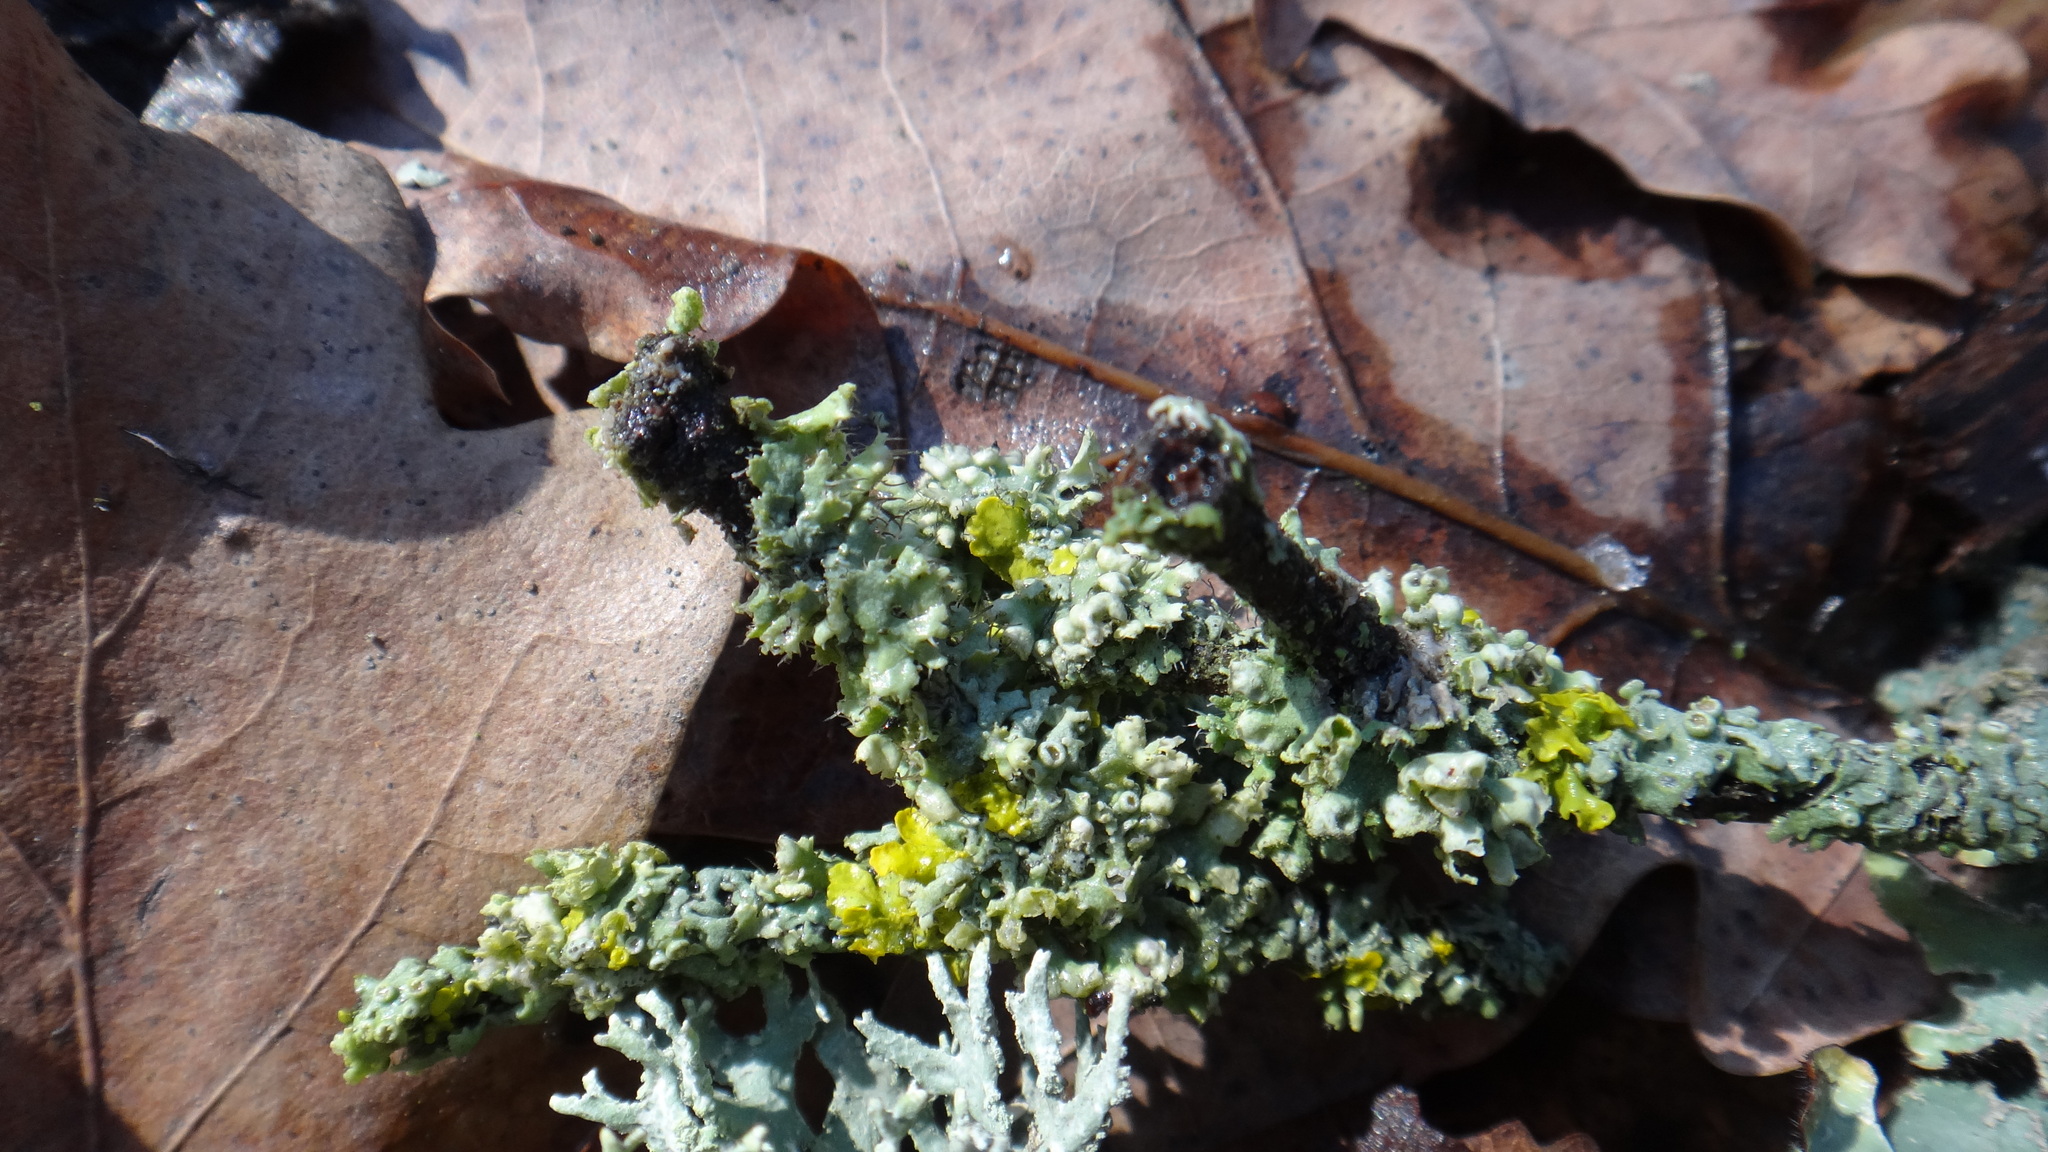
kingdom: Fungi
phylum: Ascomycota
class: Lecanoromycetes
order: Caliciales
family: Physciaceae
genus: Physcia
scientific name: Physcia adscendens
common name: Hooded rosette lichen
